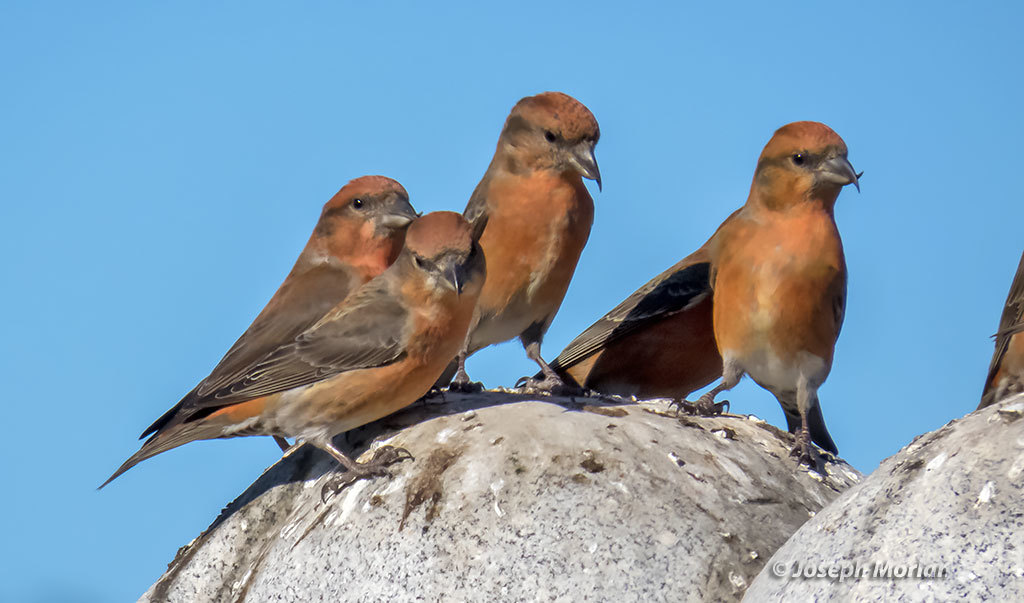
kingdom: Animalia
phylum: Chordata
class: Aves
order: Passeriformes
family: Fringillidae
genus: Loxia
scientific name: Loxia curvirostra
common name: Red crossbill
